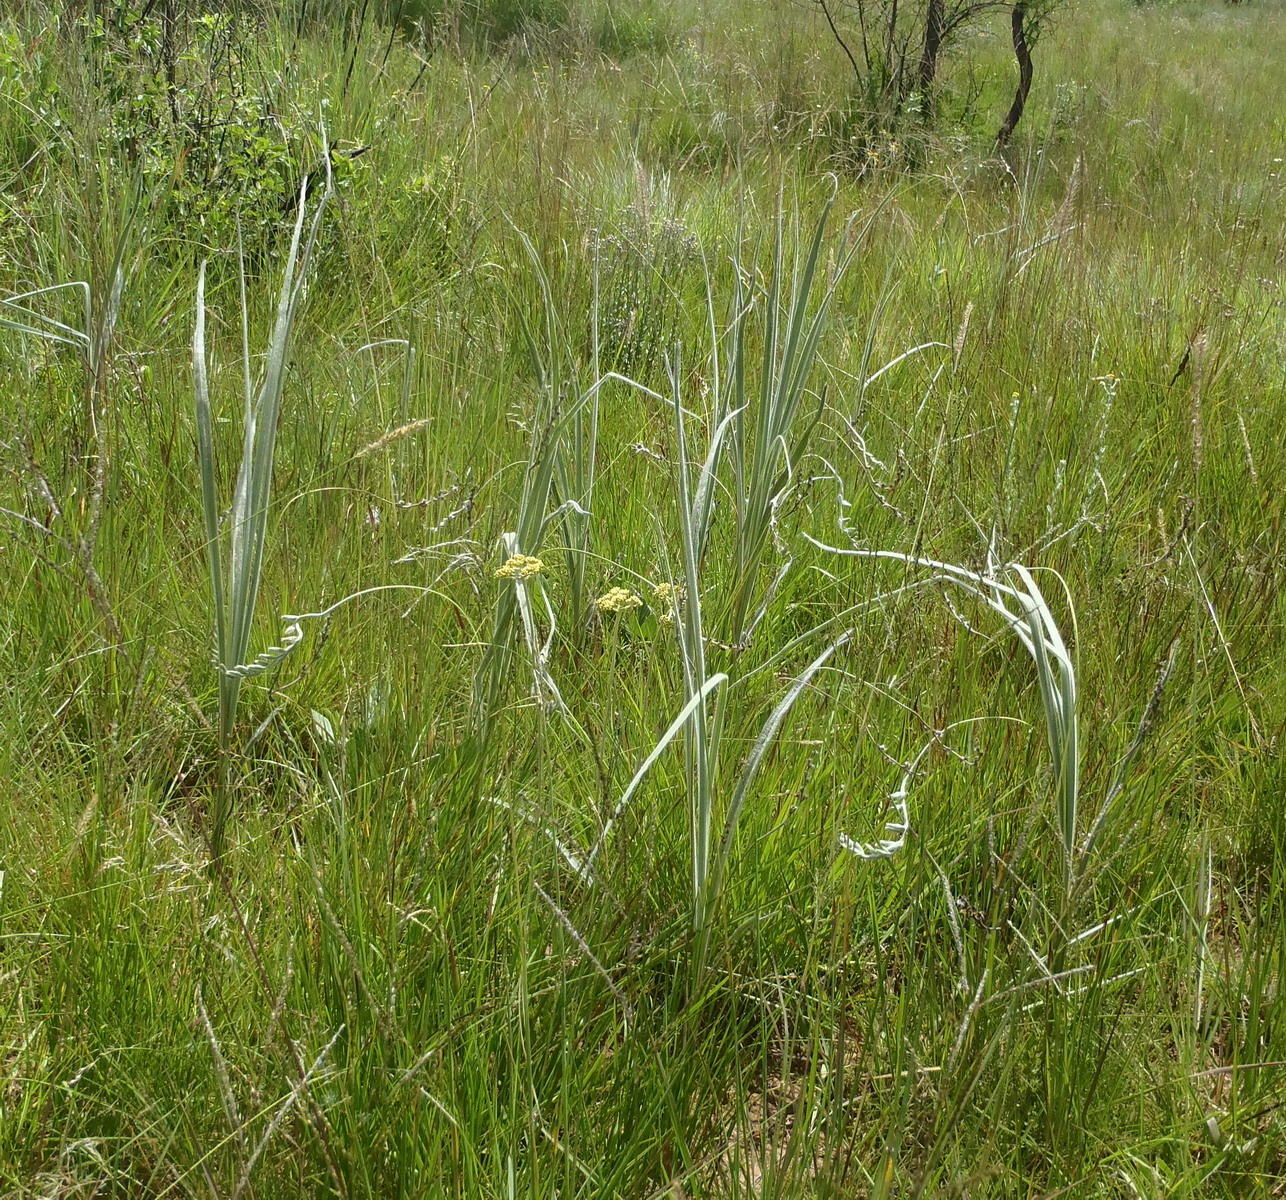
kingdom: Plantae
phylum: Tracheophyta
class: Liliopsida
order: Asparagales
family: Hypoxidaceae
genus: Hypoxis
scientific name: Hypoxis rigidula
